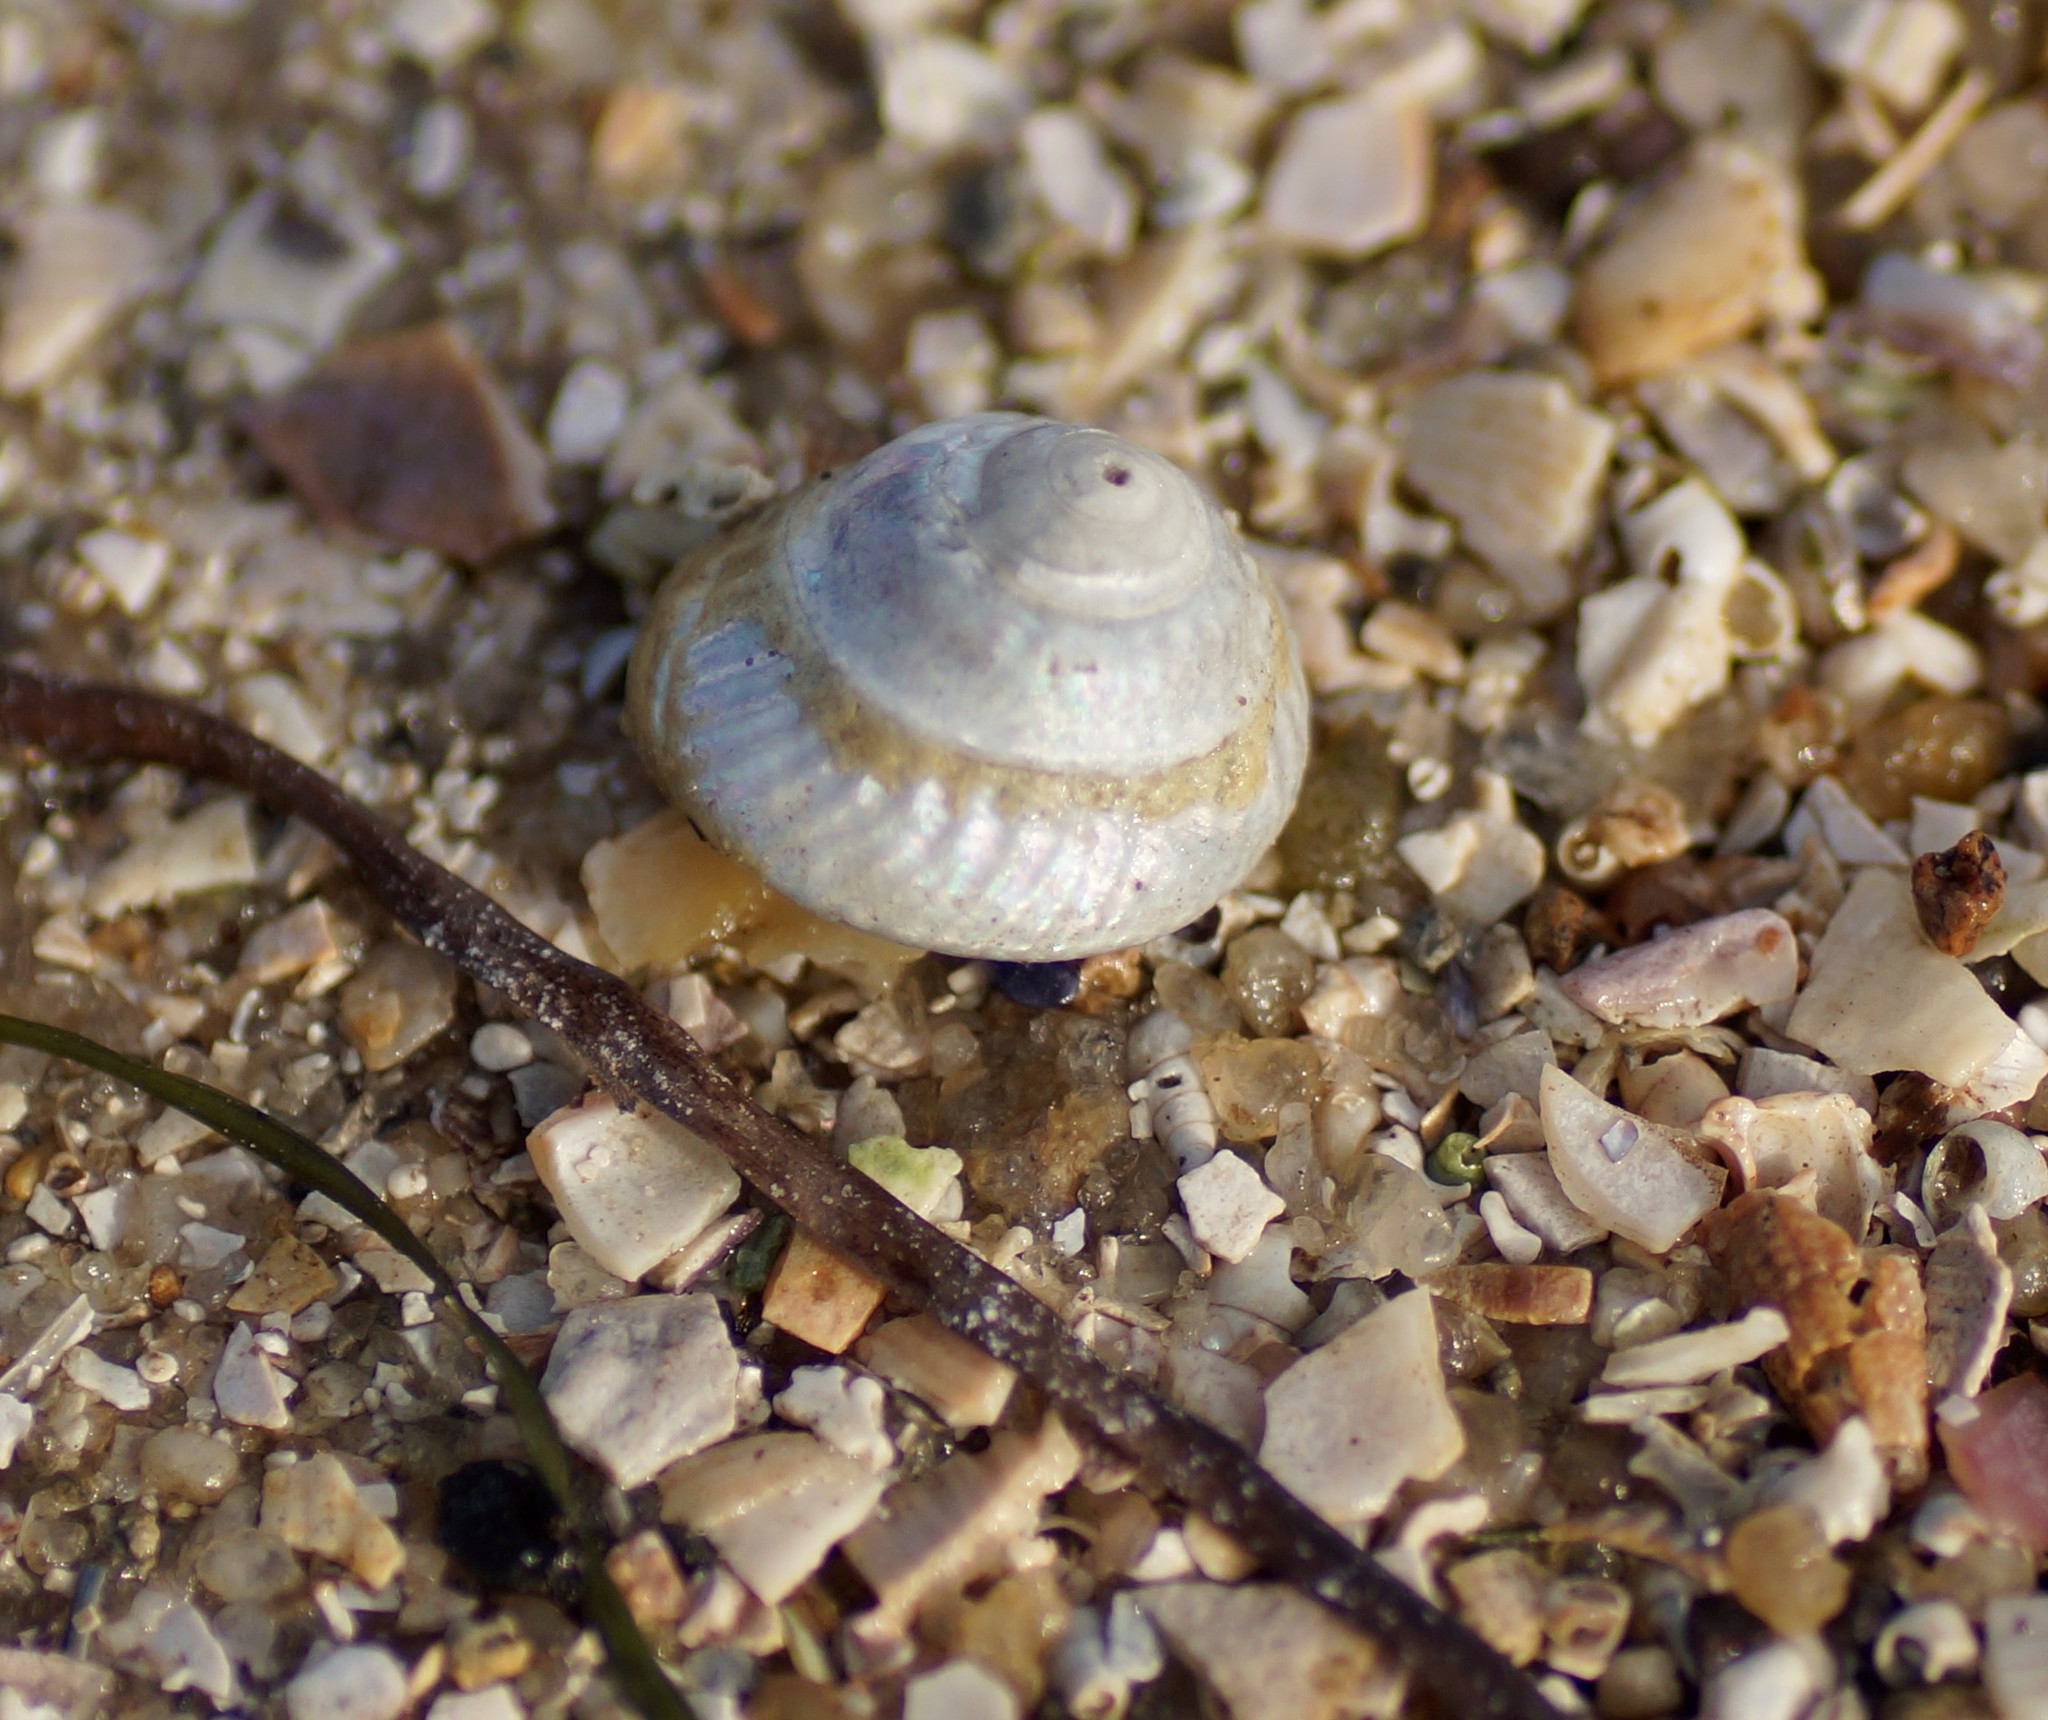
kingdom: Animalia
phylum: Mollusca
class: Gastropoda
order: Trochida
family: Turbinidae
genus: Bellastraea
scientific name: Bellastraea aurea
